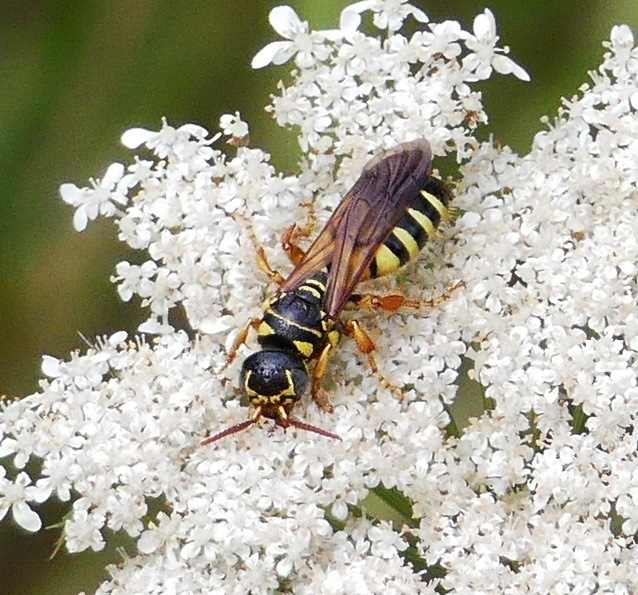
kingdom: Animalia
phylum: Arthropoda
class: Insecta
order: Hymenoptera
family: Tiphiidae
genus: Myzinum
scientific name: Myzinum quinquecinctum
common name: Five-banded thynnid wasp
